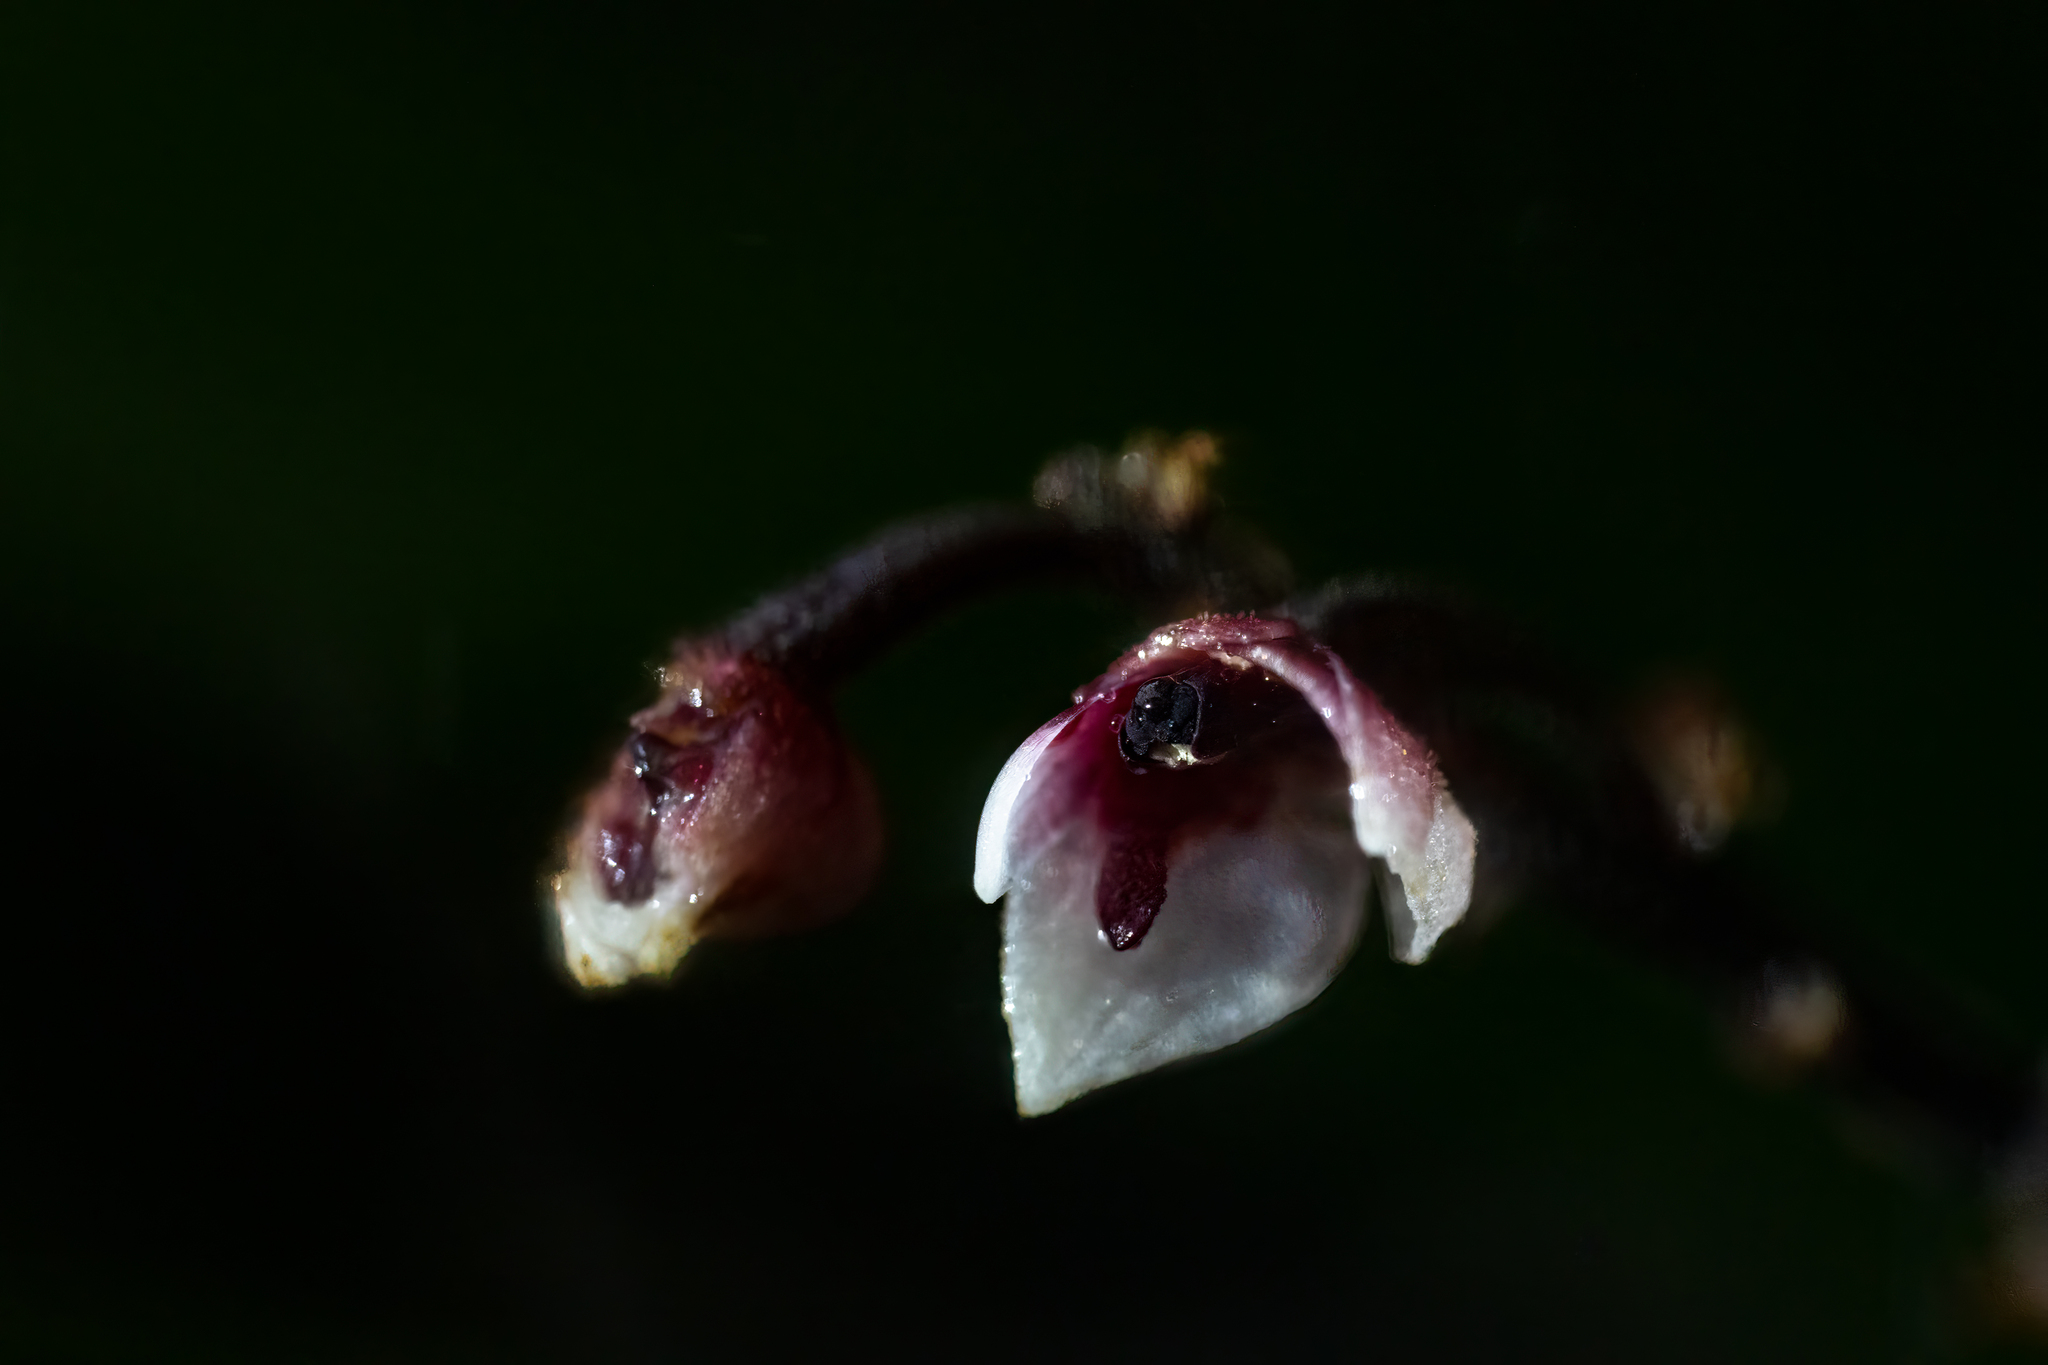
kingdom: Plantae
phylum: Tracheophyta
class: Liliopsida
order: Asparagales
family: Orchidaceae
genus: Cymboglossum
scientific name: Cymboglossum grande
